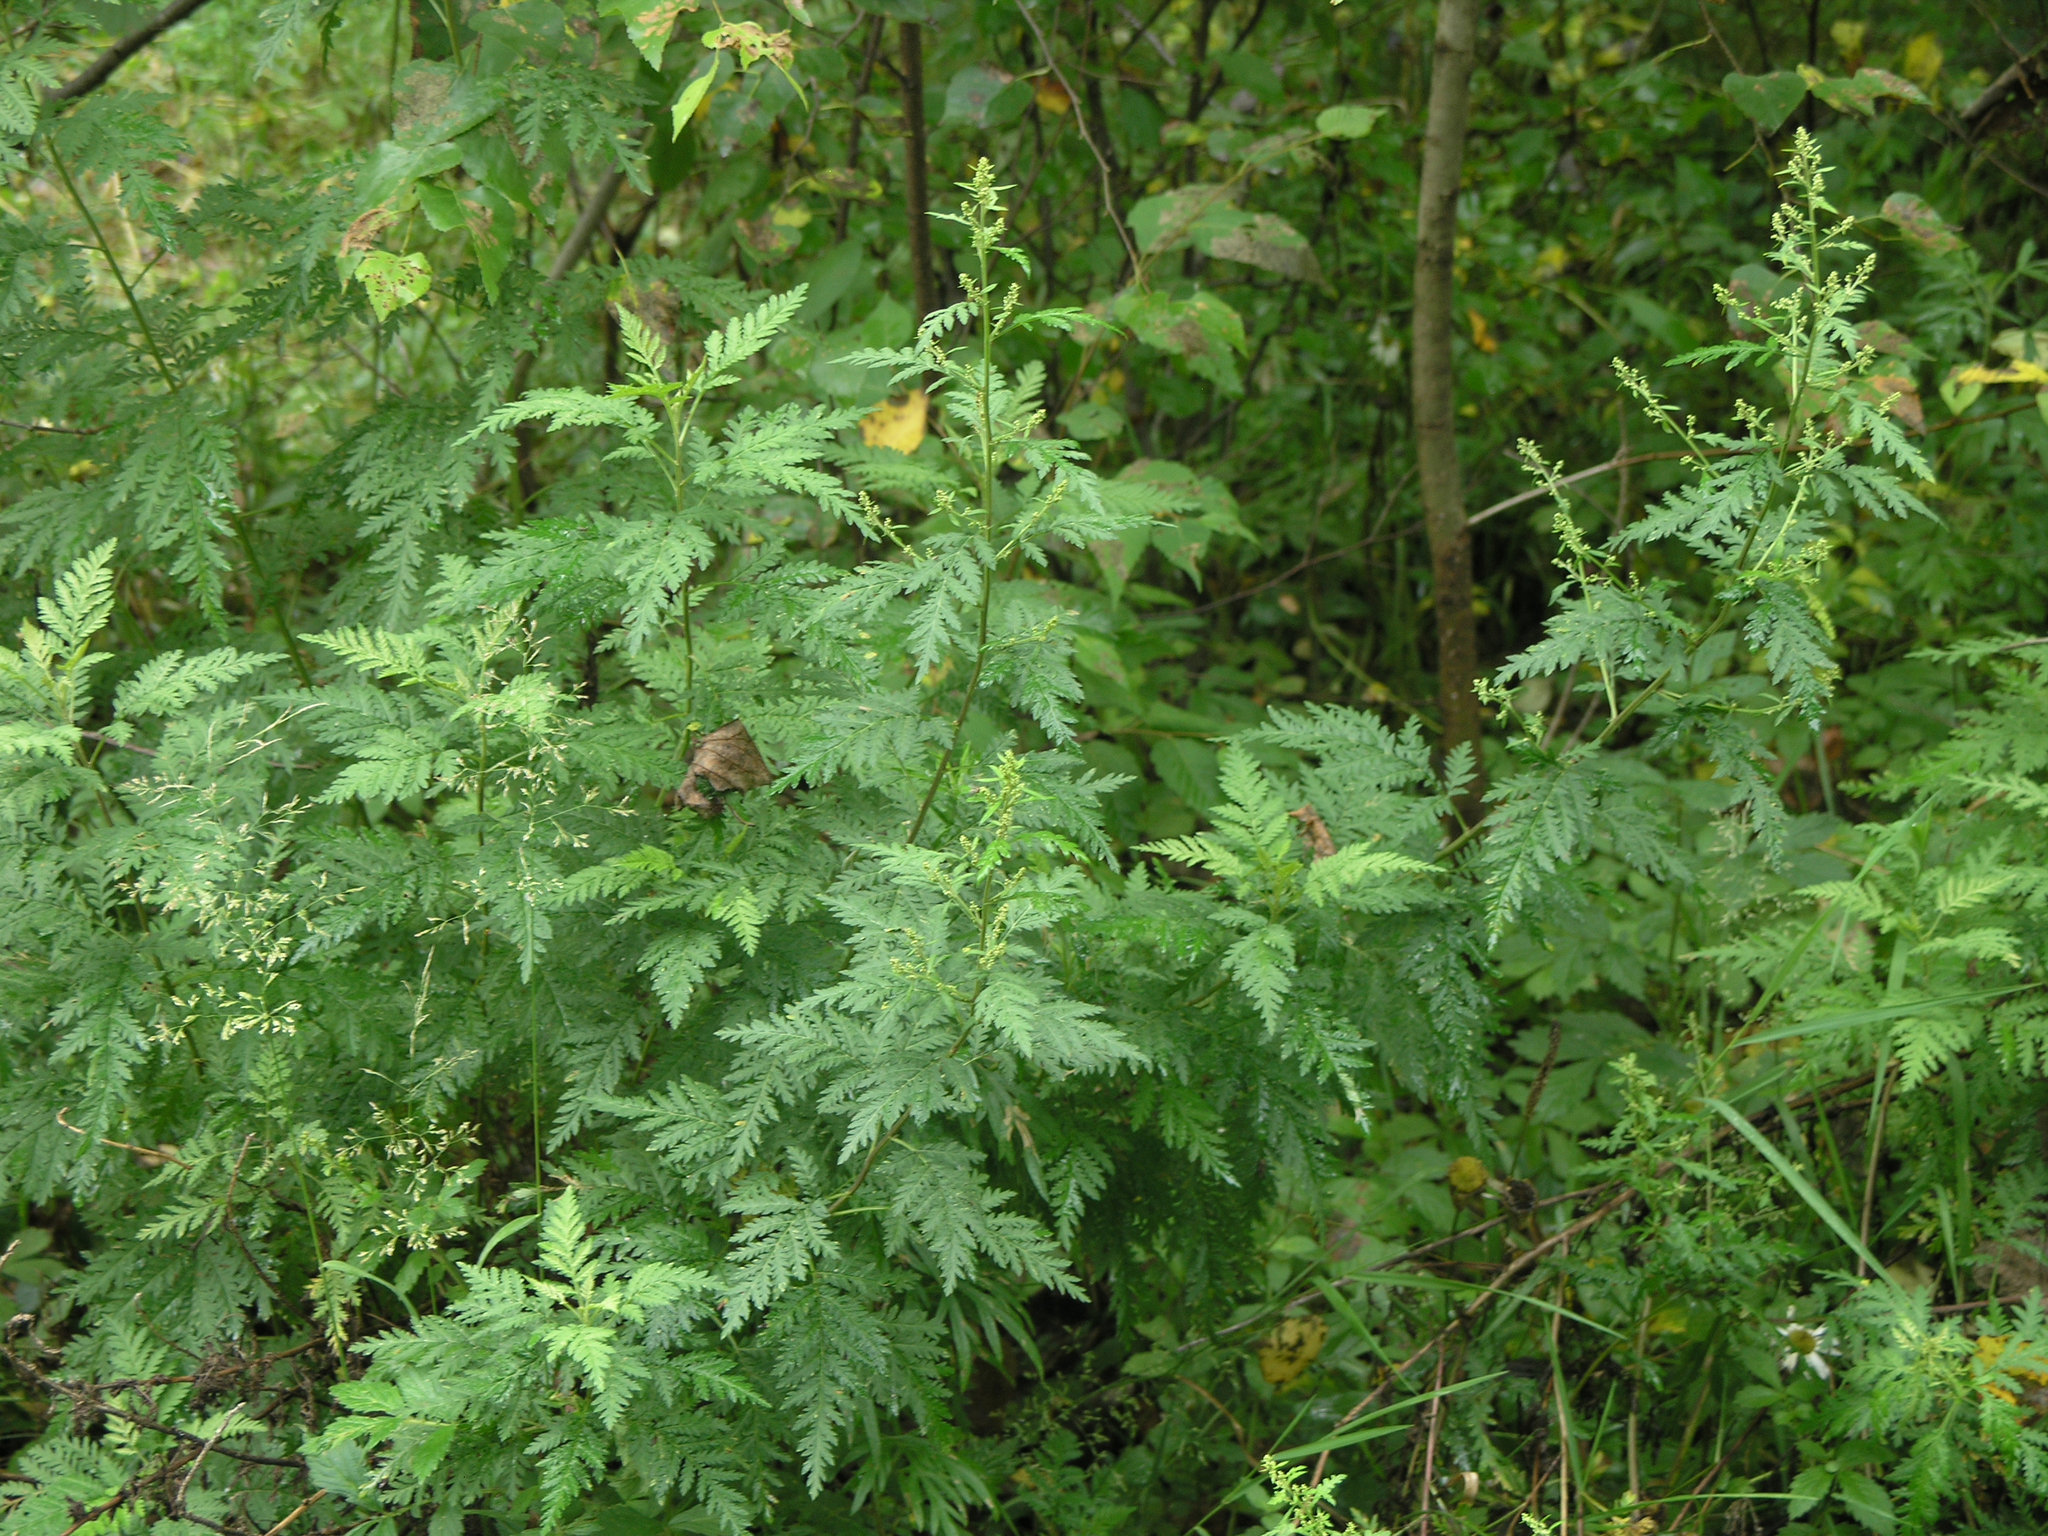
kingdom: Plantae
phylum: Tracheophyta
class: Magnoliopsida
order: Asterales
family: Asteraceae
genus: Artemisia
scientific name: Artemisia gmelinii
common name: Gmelin's wormwood
